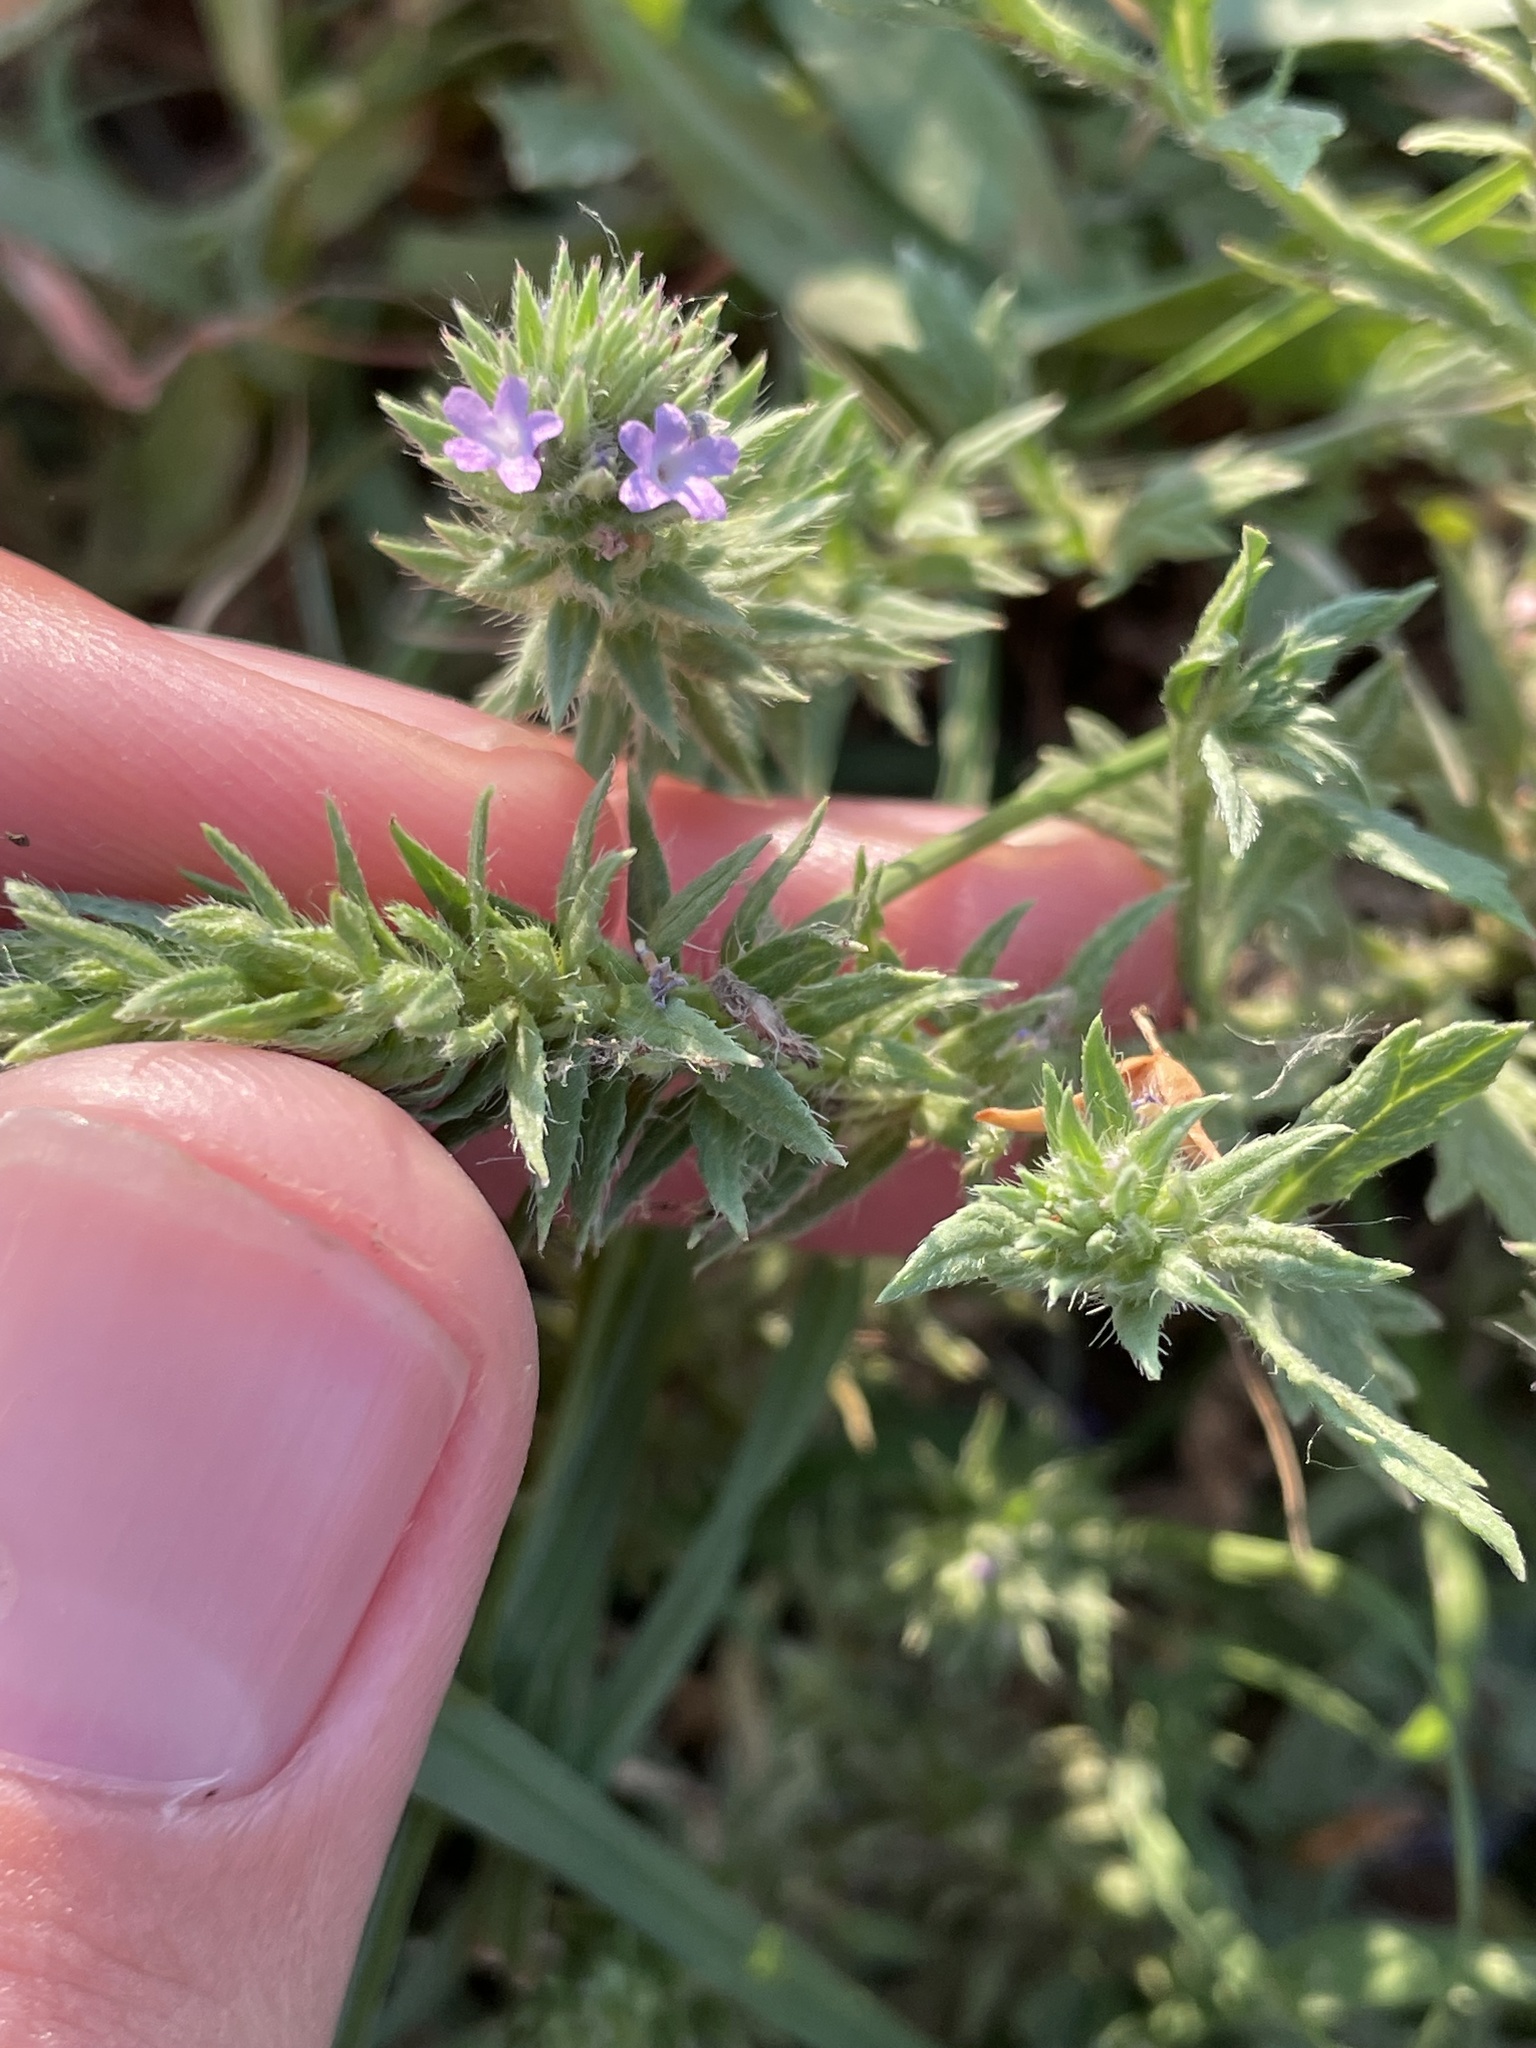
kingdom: Plantae
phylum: Tracheophyta
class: Magnoliopsida
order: Lamiales
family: Verbenaceae
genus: Verbena
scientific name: Verbena bracteata
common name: Bracted vervain
